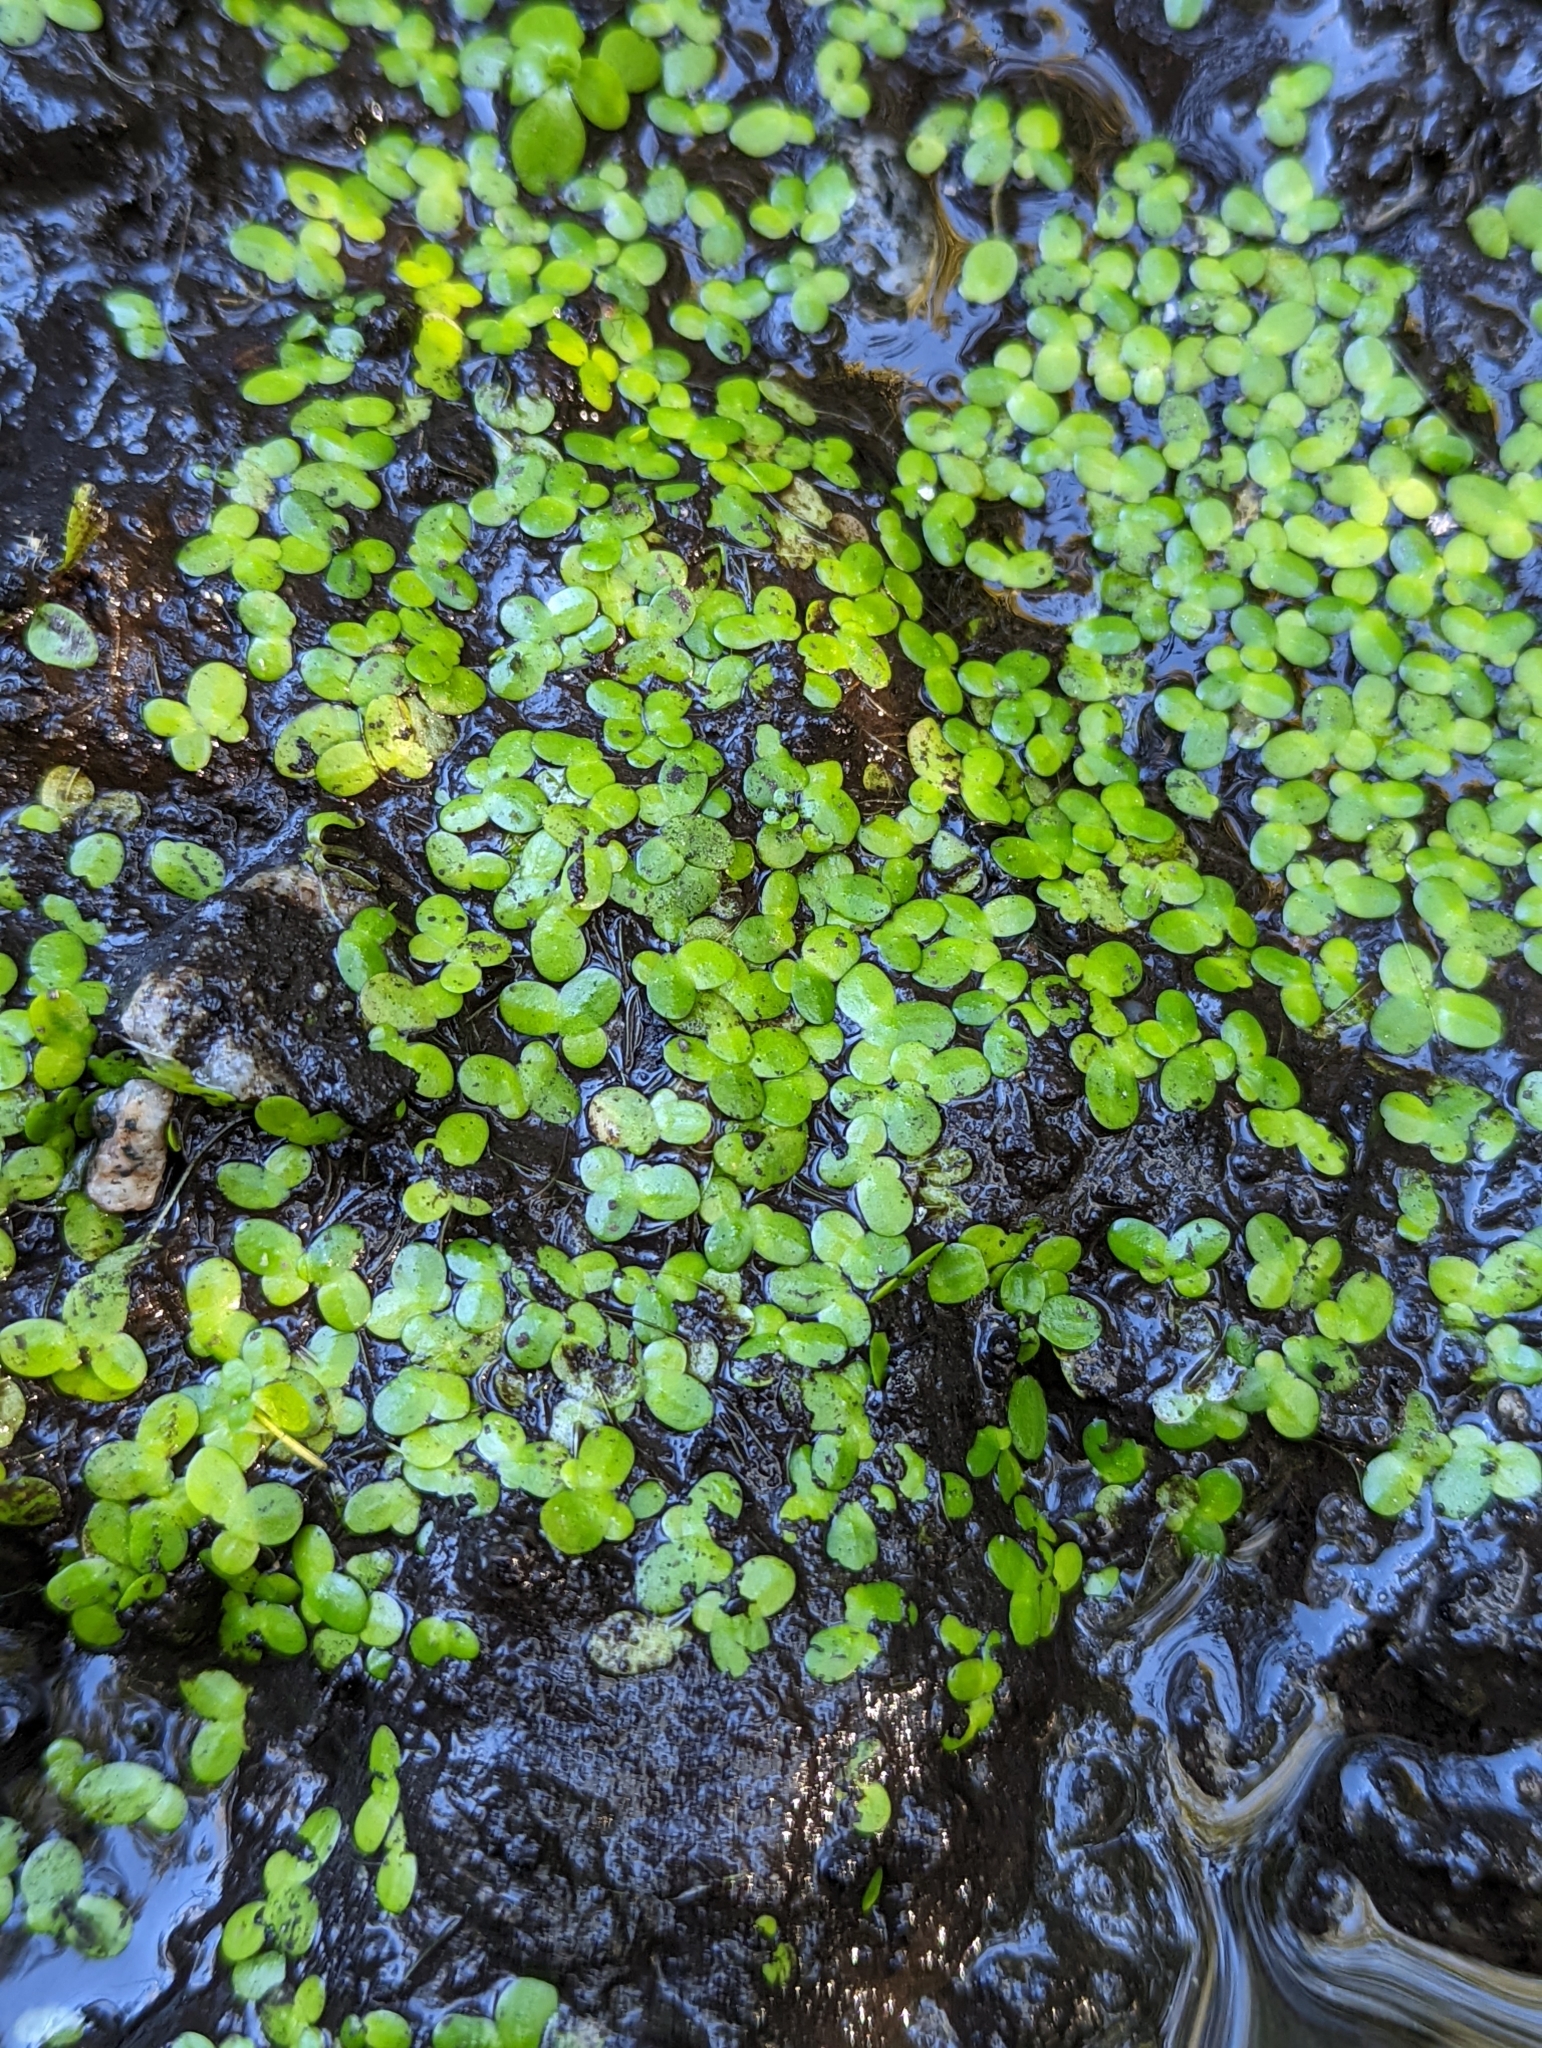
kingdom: Plantae
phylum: Tracheophyta
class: Liliopsida
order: Alismatales
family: Araceae
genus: Lemna
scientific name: Lemna minor
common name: Common duckweed
